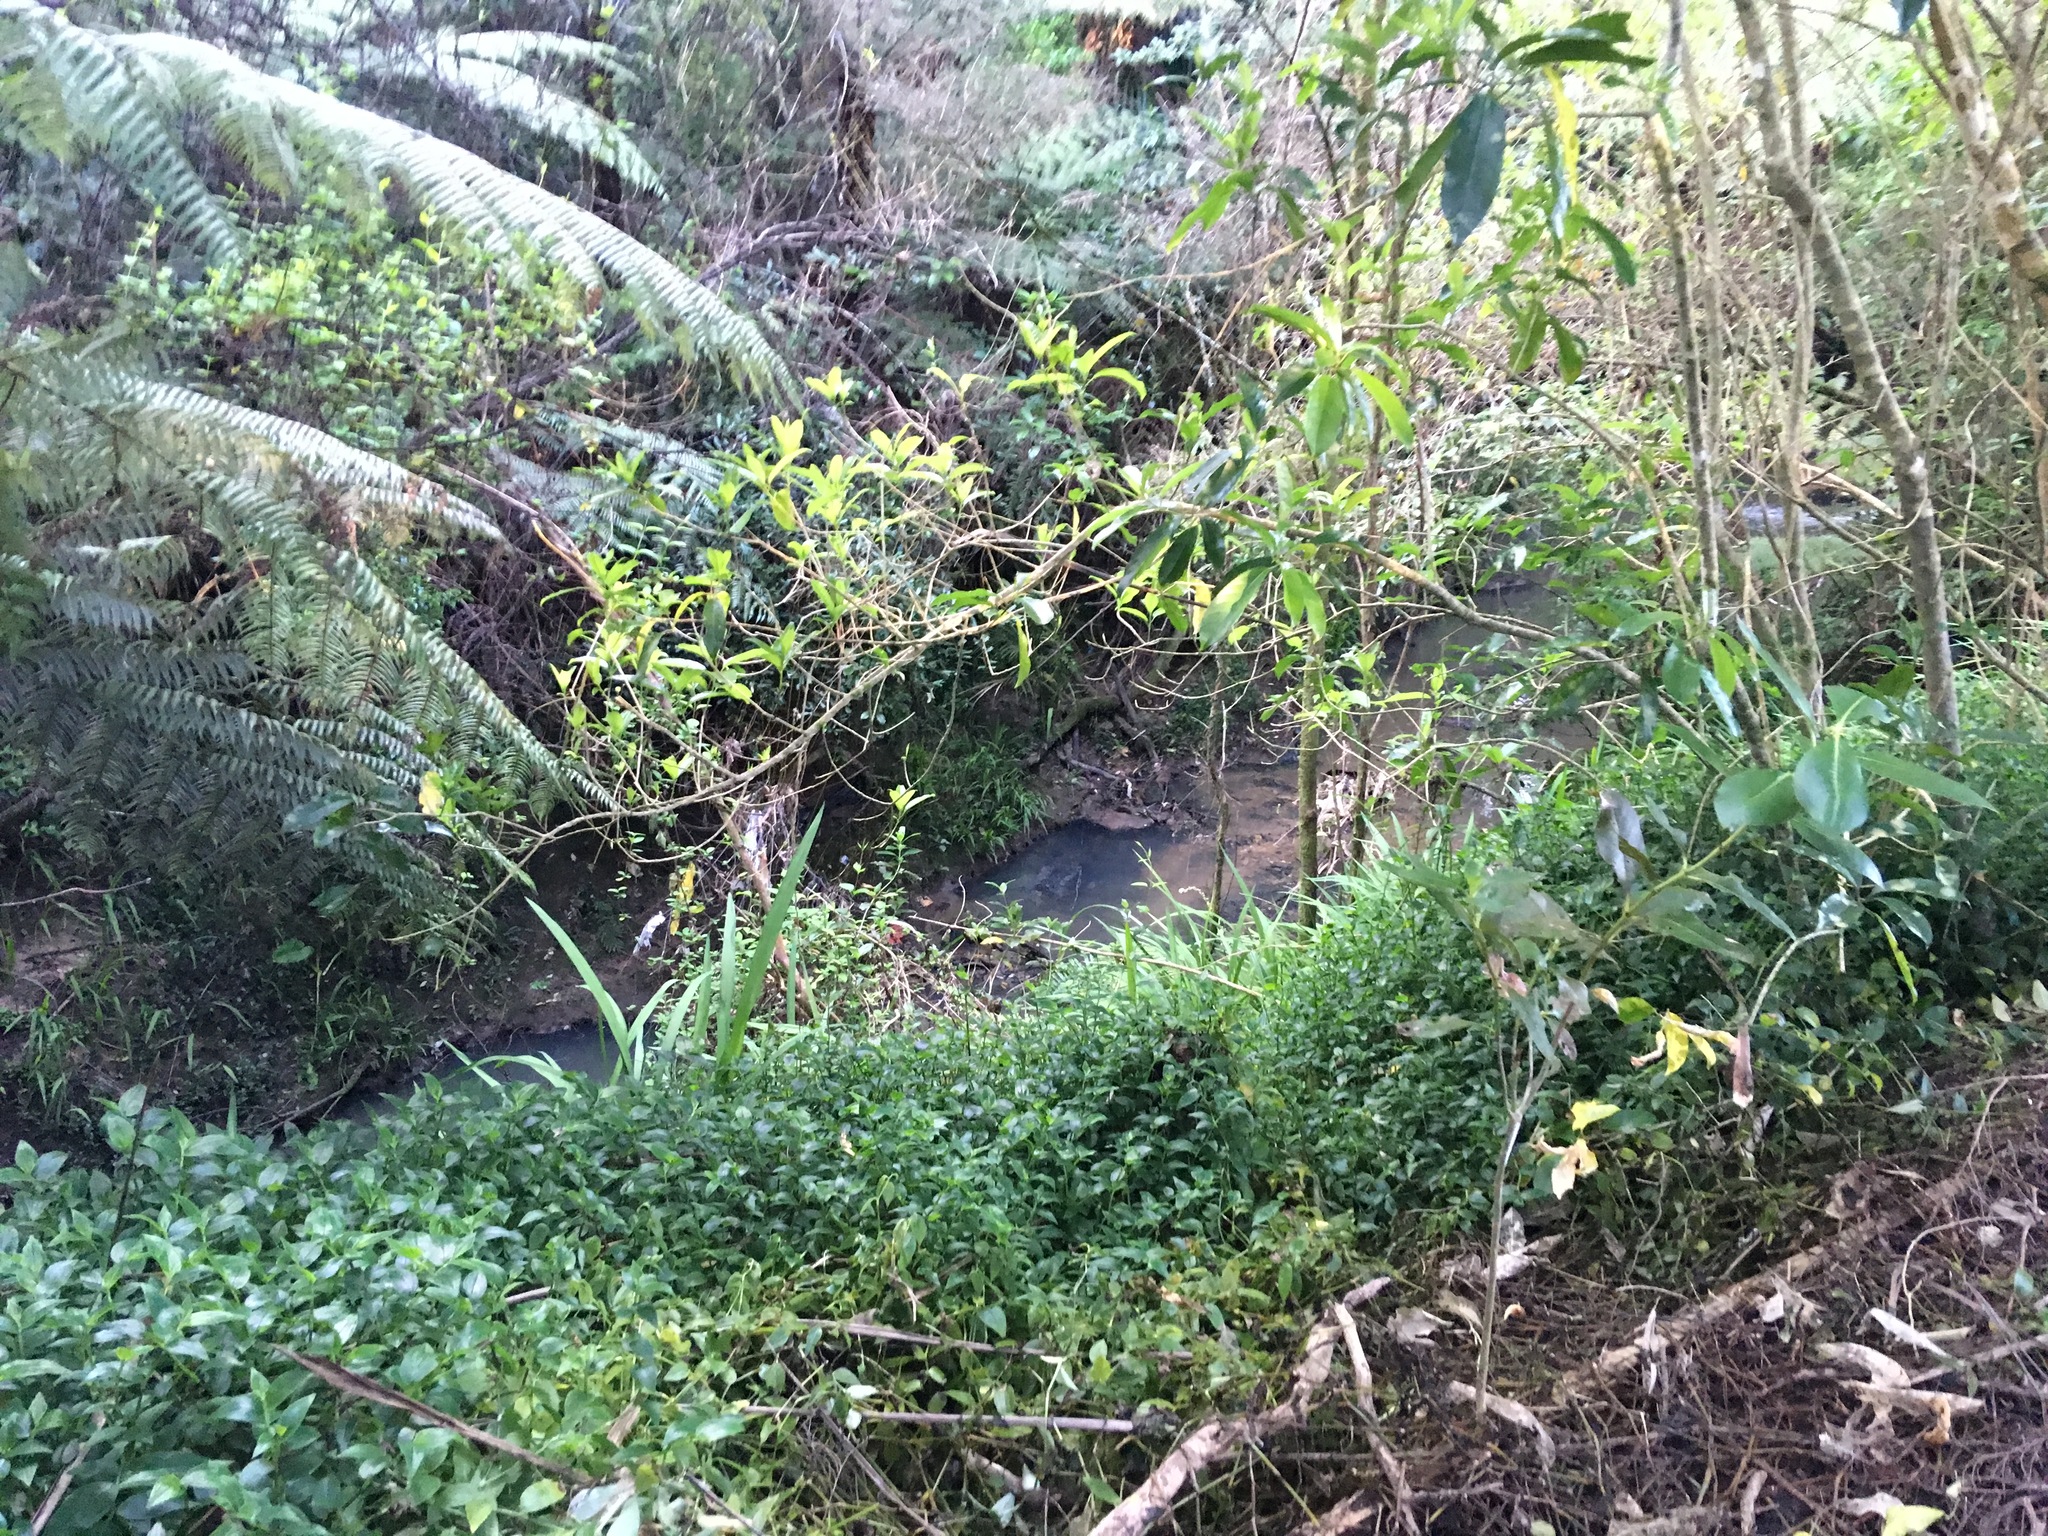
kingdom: Plantae
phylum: Tracheophyta
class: Liliopsida
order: Commelinales
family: Commelinaceae
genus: Tradescantia
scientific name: Tradescantia fluminensis
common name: Wandering-jew
